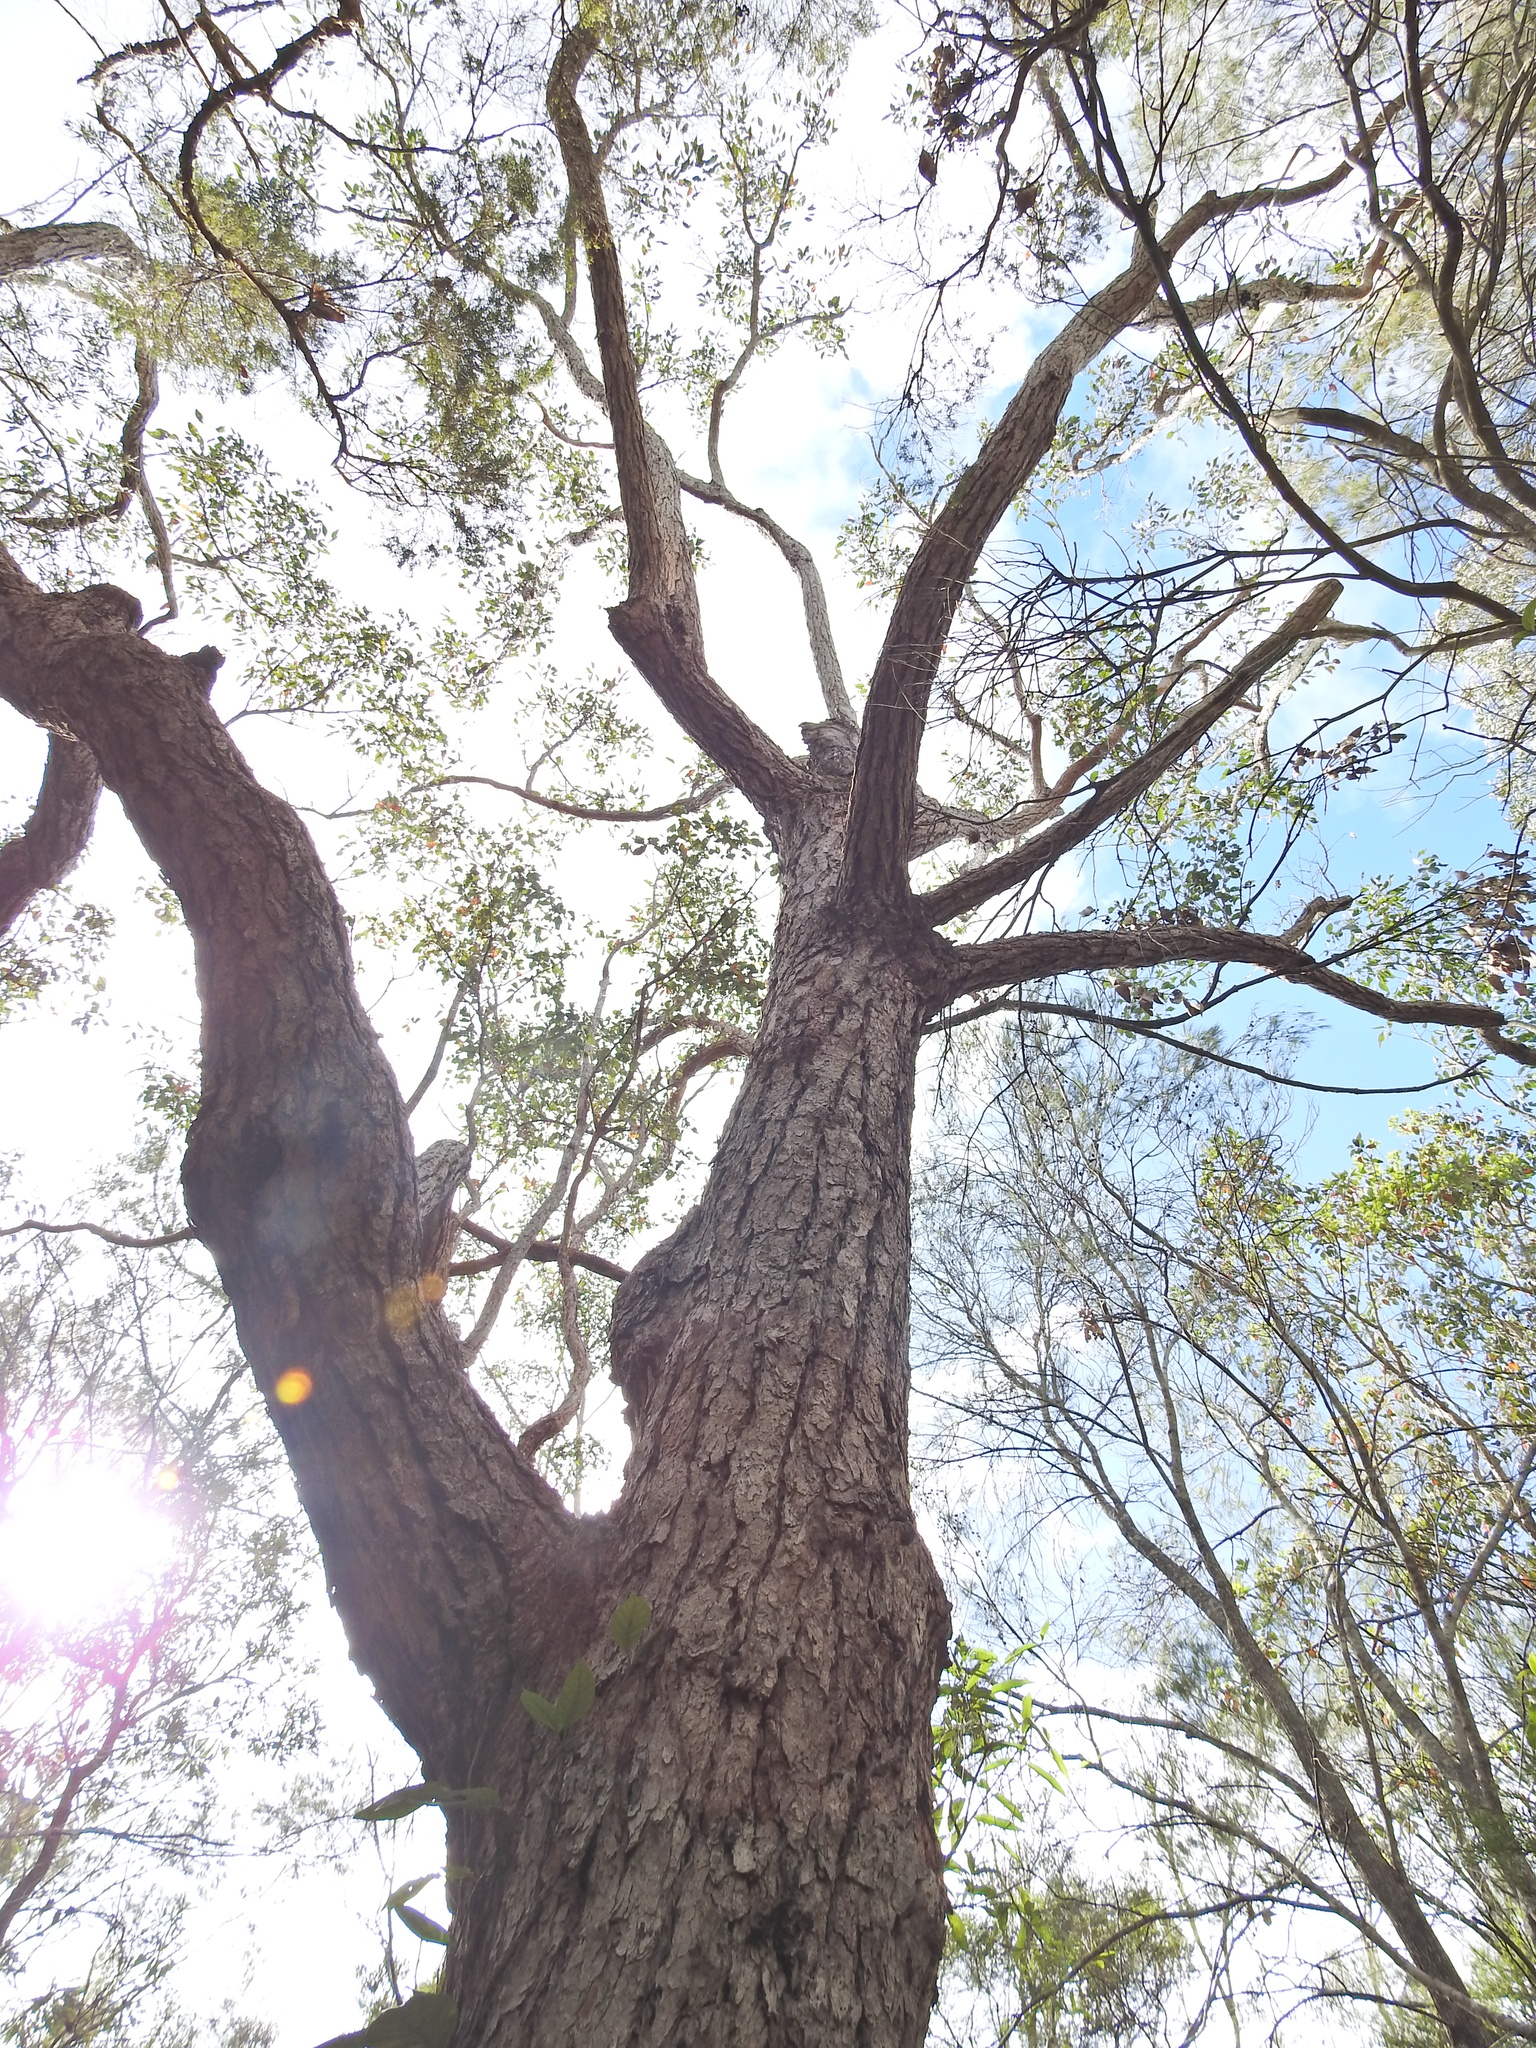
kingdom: Plantae
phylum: Tracheophyta
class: Magnoliopsida
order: Myrtales
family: Myrtaceae
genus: Eucalyptus
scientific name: Eucalyptus robusta
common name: Swampmahogany
